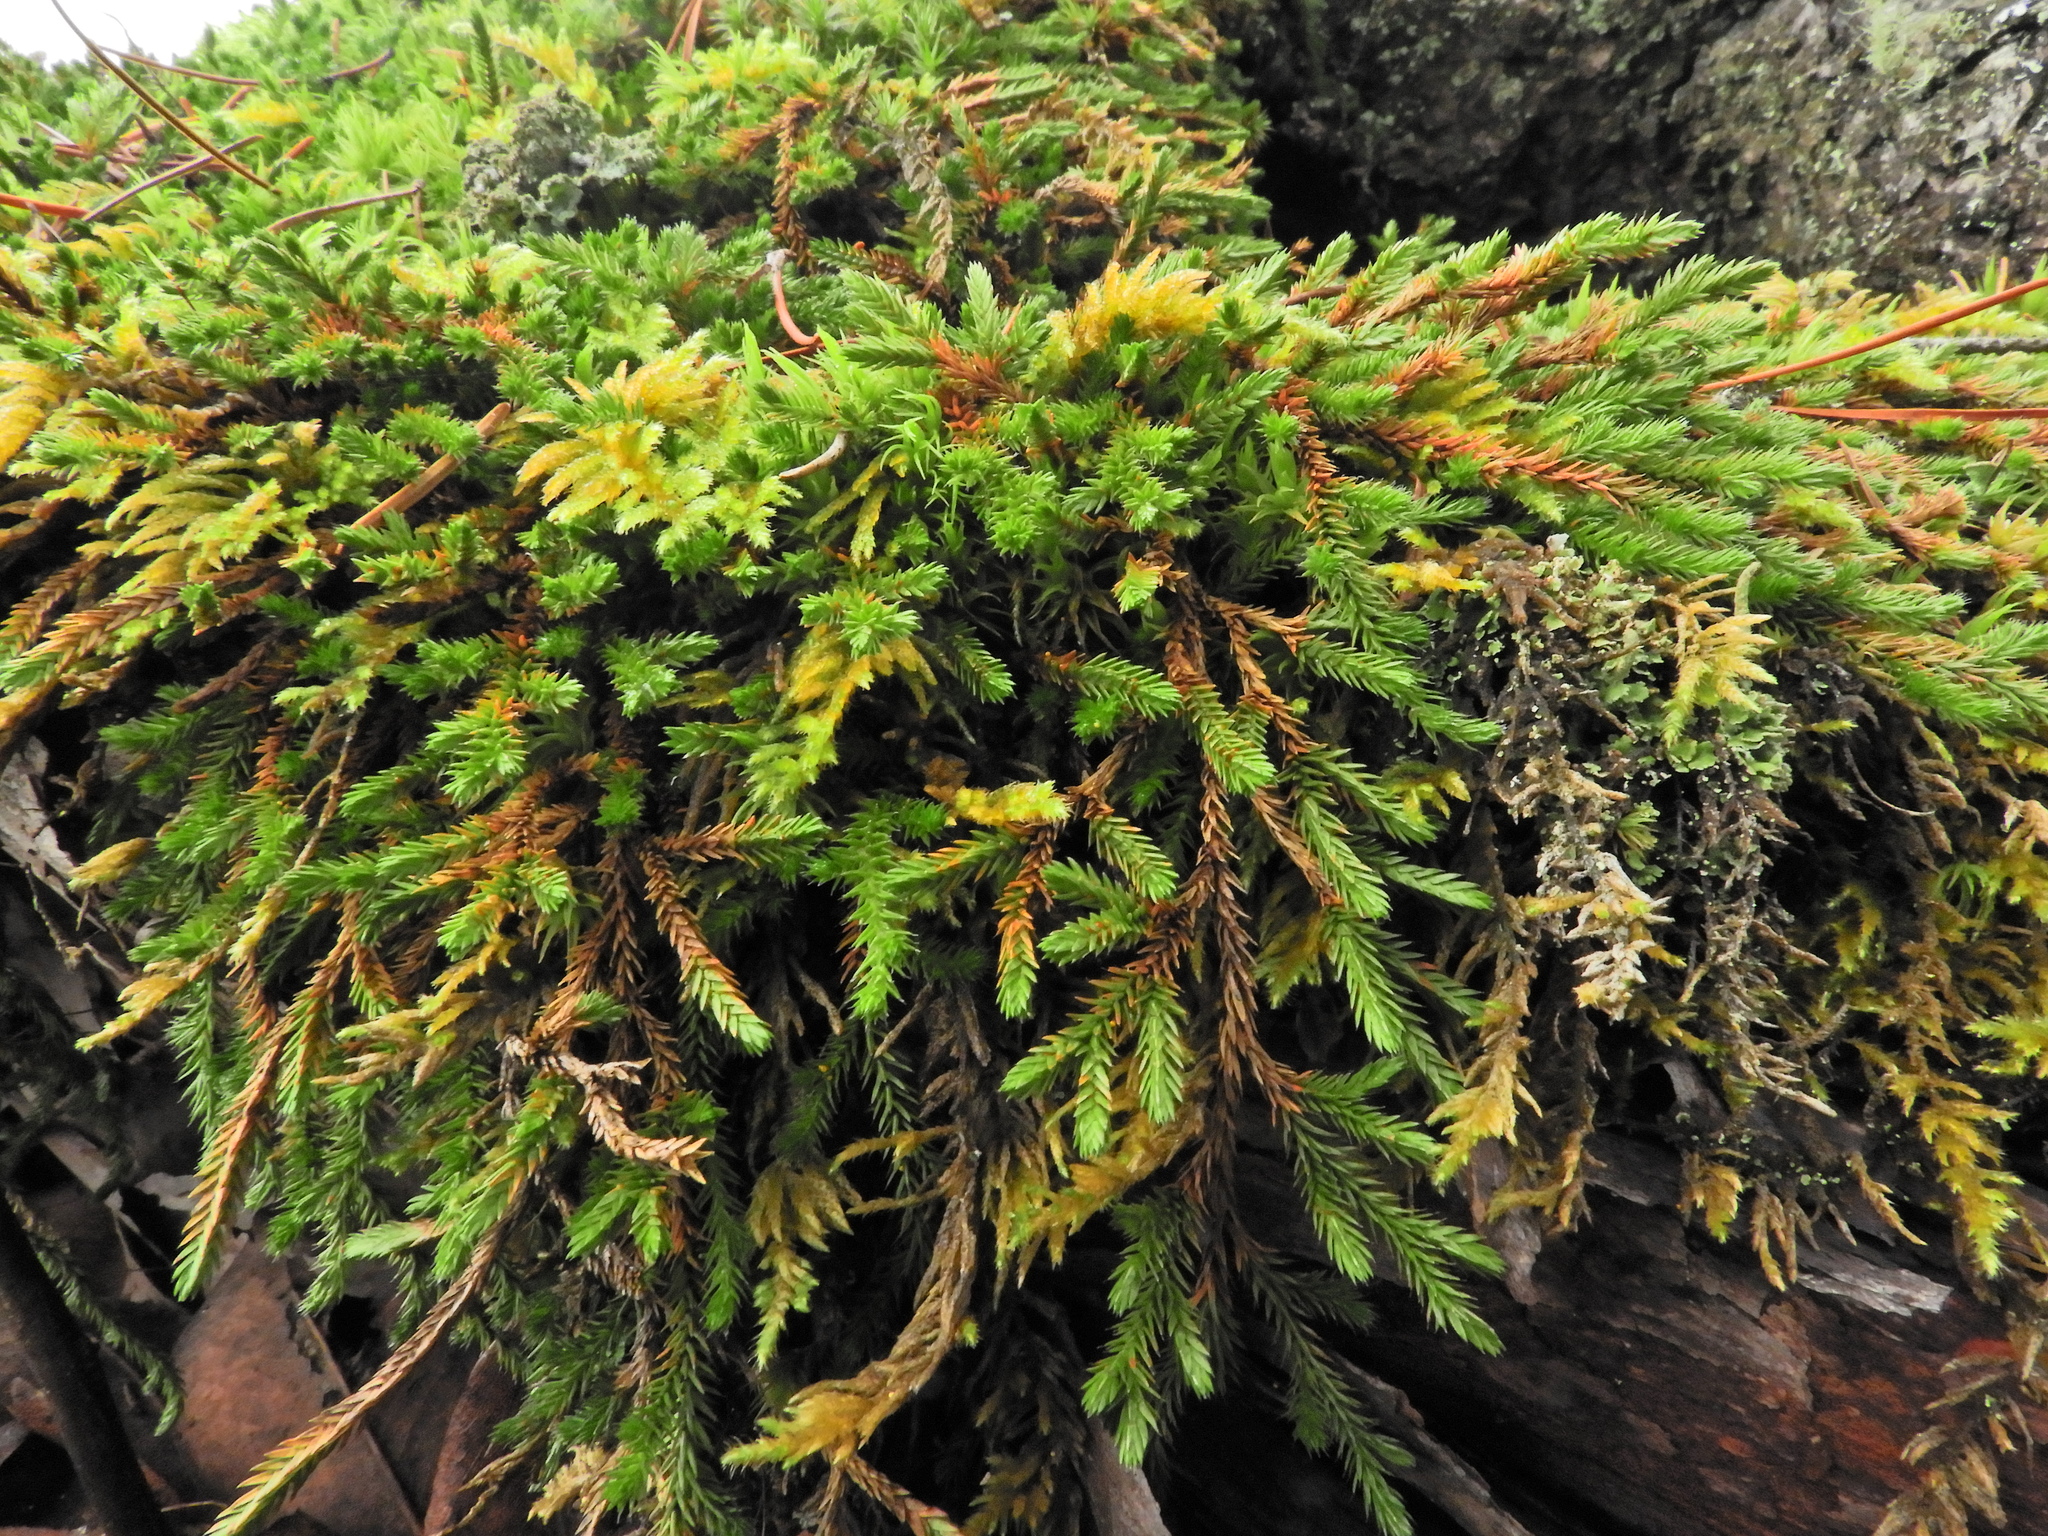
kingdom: Plantae
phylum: Tracheophyta
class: Lycopodiopsida
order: Selaginellales
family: Selaginellaceae
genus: Selaginella
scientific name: Selaginella wallacei
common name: Wallace's selaginella
